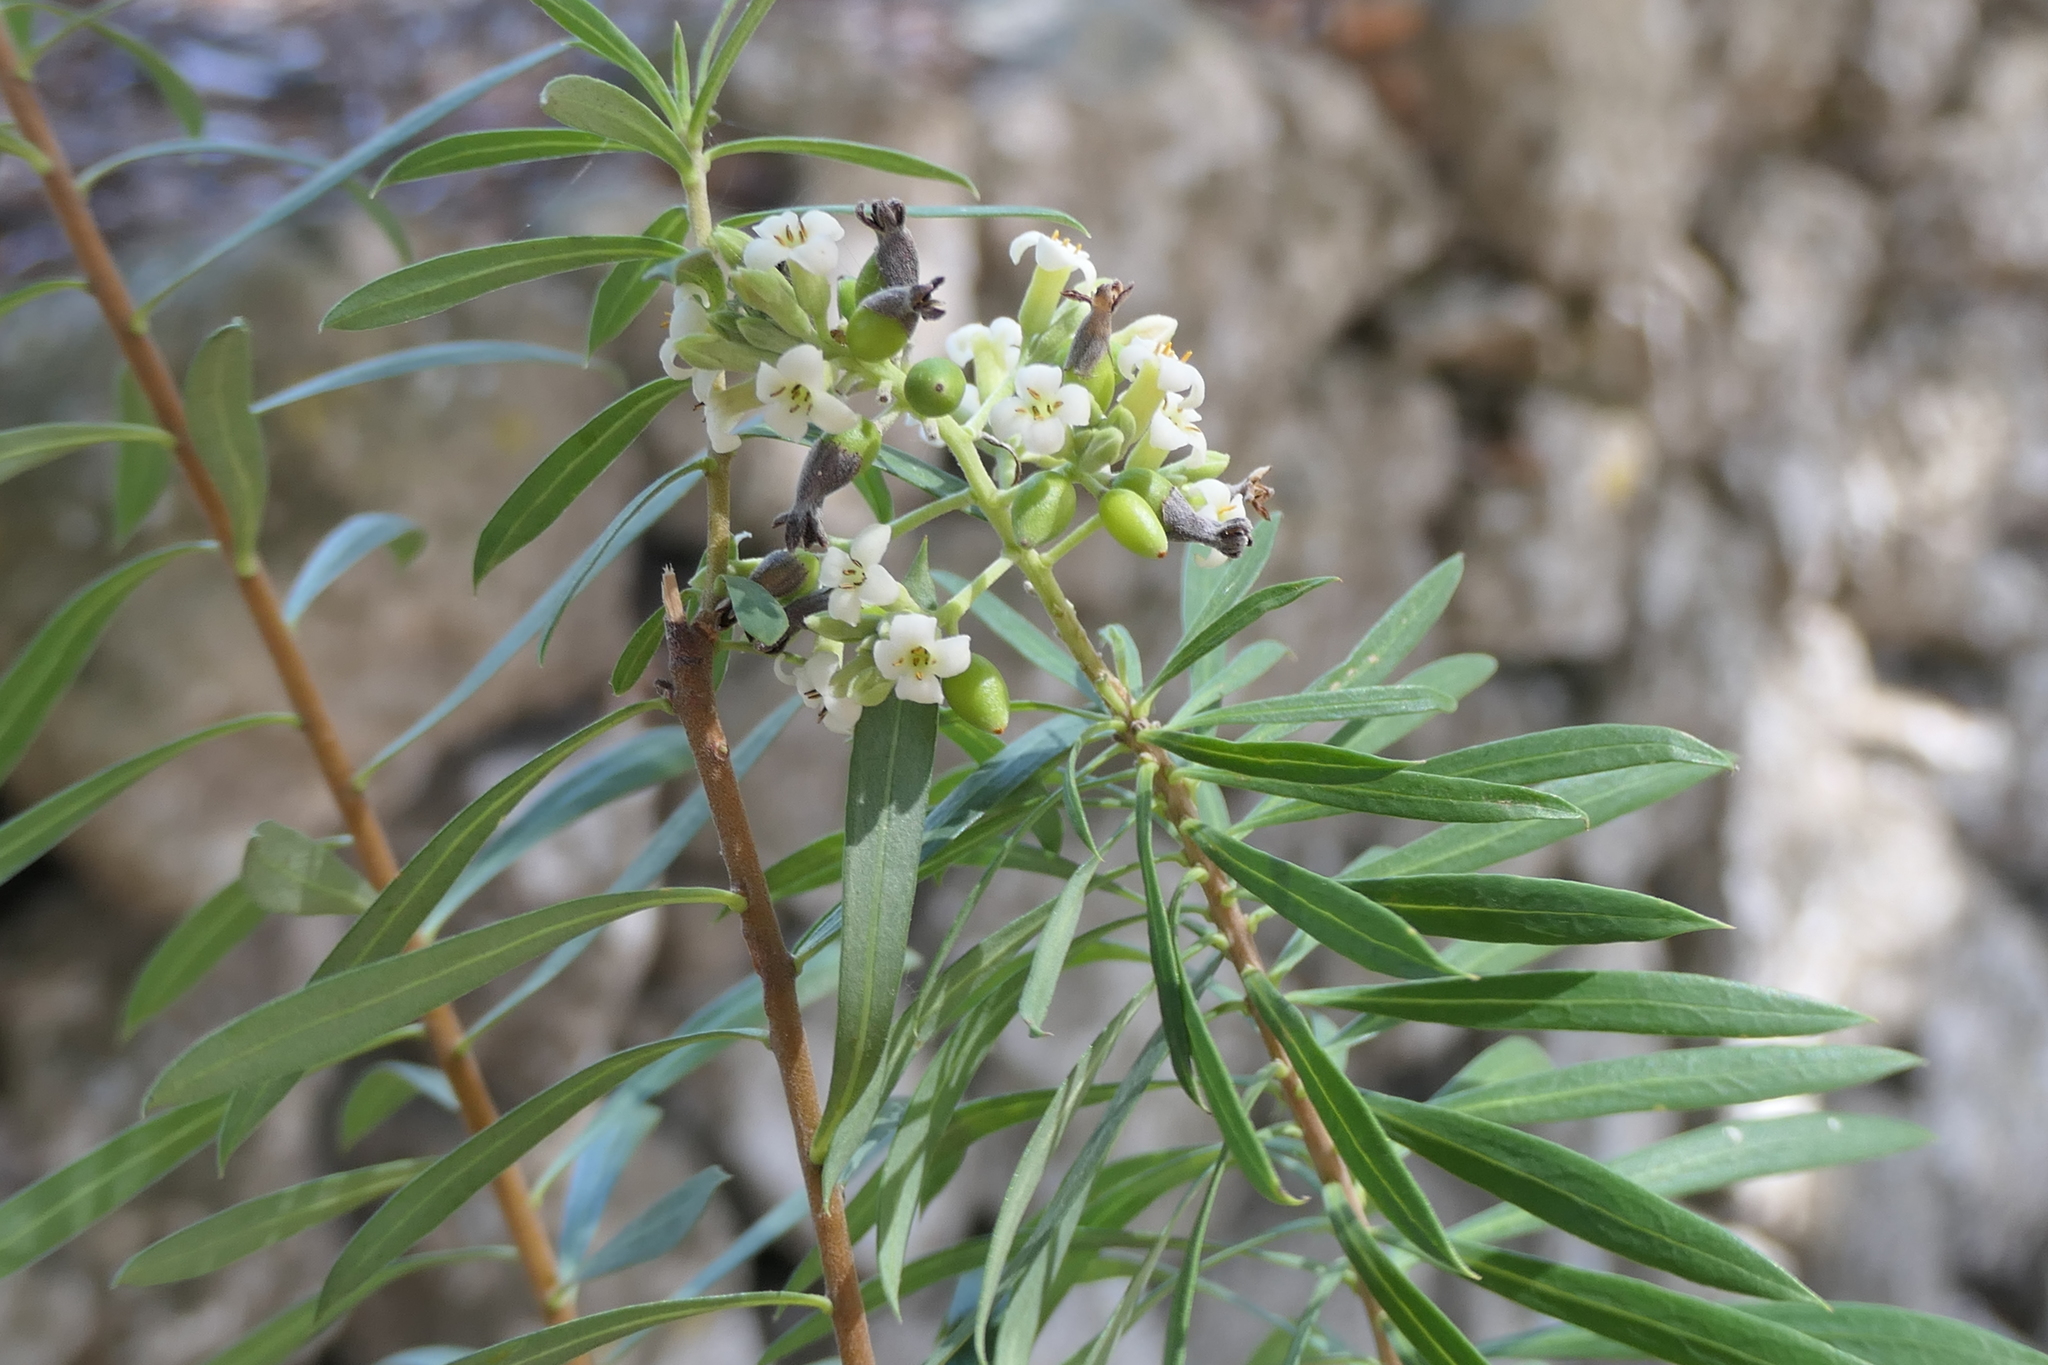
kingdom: Plantae
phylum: Tracheophyta
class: Magnoliopsida
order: Malvales
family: Thymelaeaceae
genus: Daphne
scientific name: Daphne gnidium
